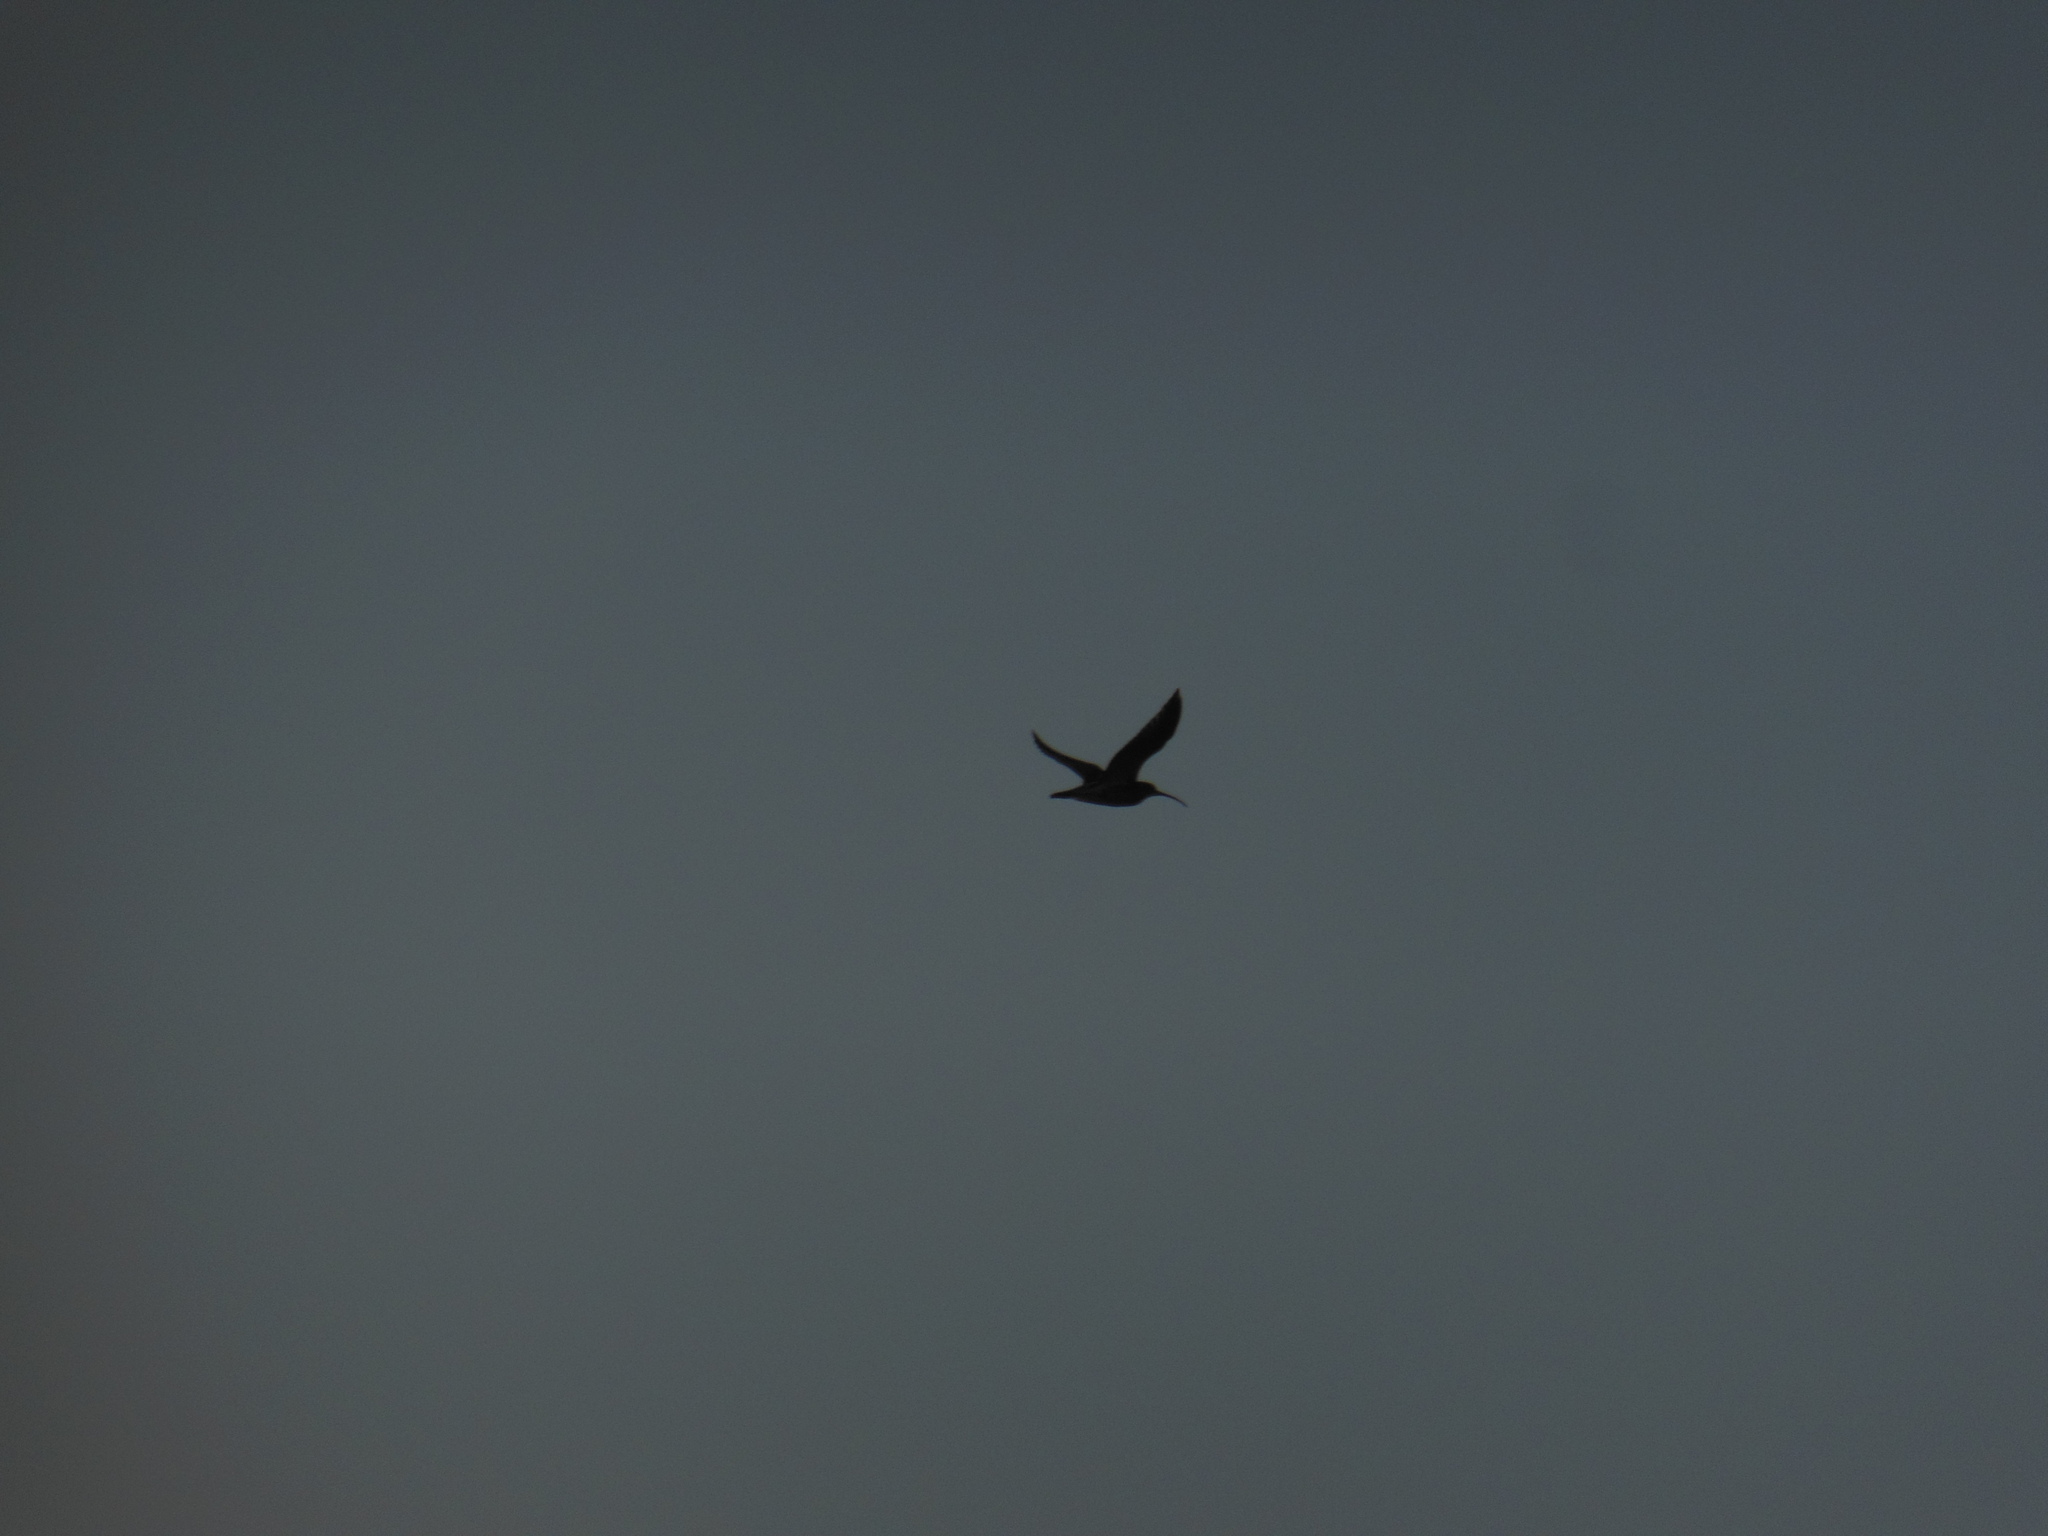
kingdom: Animalia
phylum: Chordata
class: Aves
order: Charadriiformes
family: Scolopacidae
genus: Numenius
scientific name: Numenius arquata
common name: Eurasian curlew
